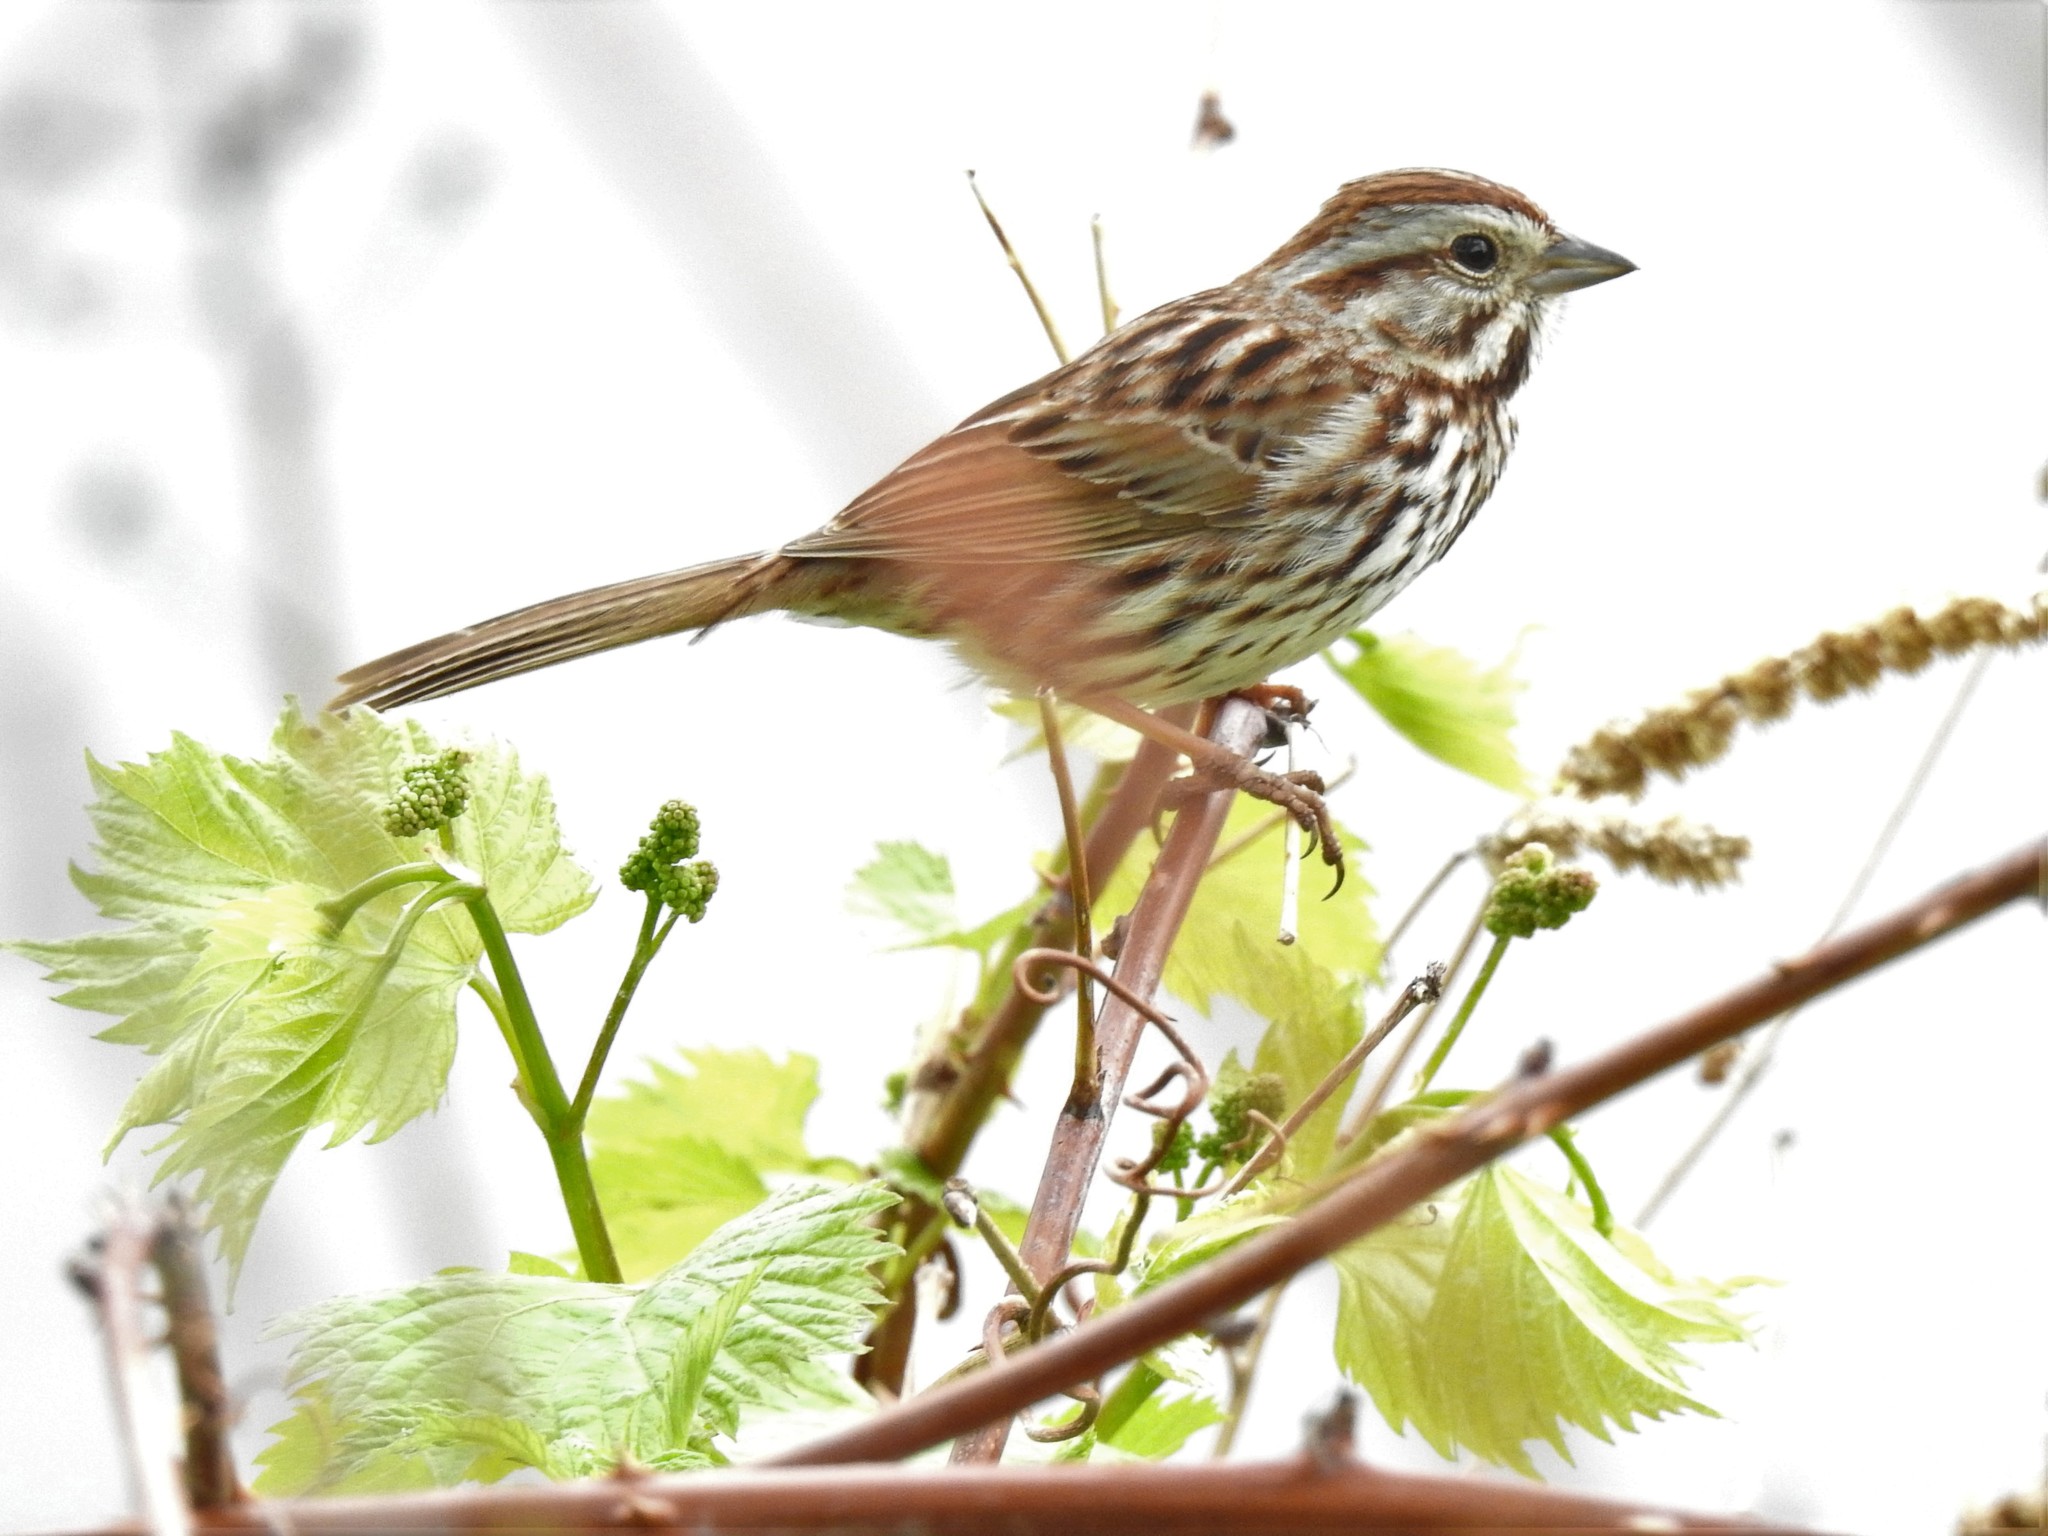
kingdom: Animalia
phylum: Chordata
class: Aves
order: Passeriformes
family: Passerellidae
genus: Melospiza
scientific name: Melospiza melodia
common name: Song sparrow
